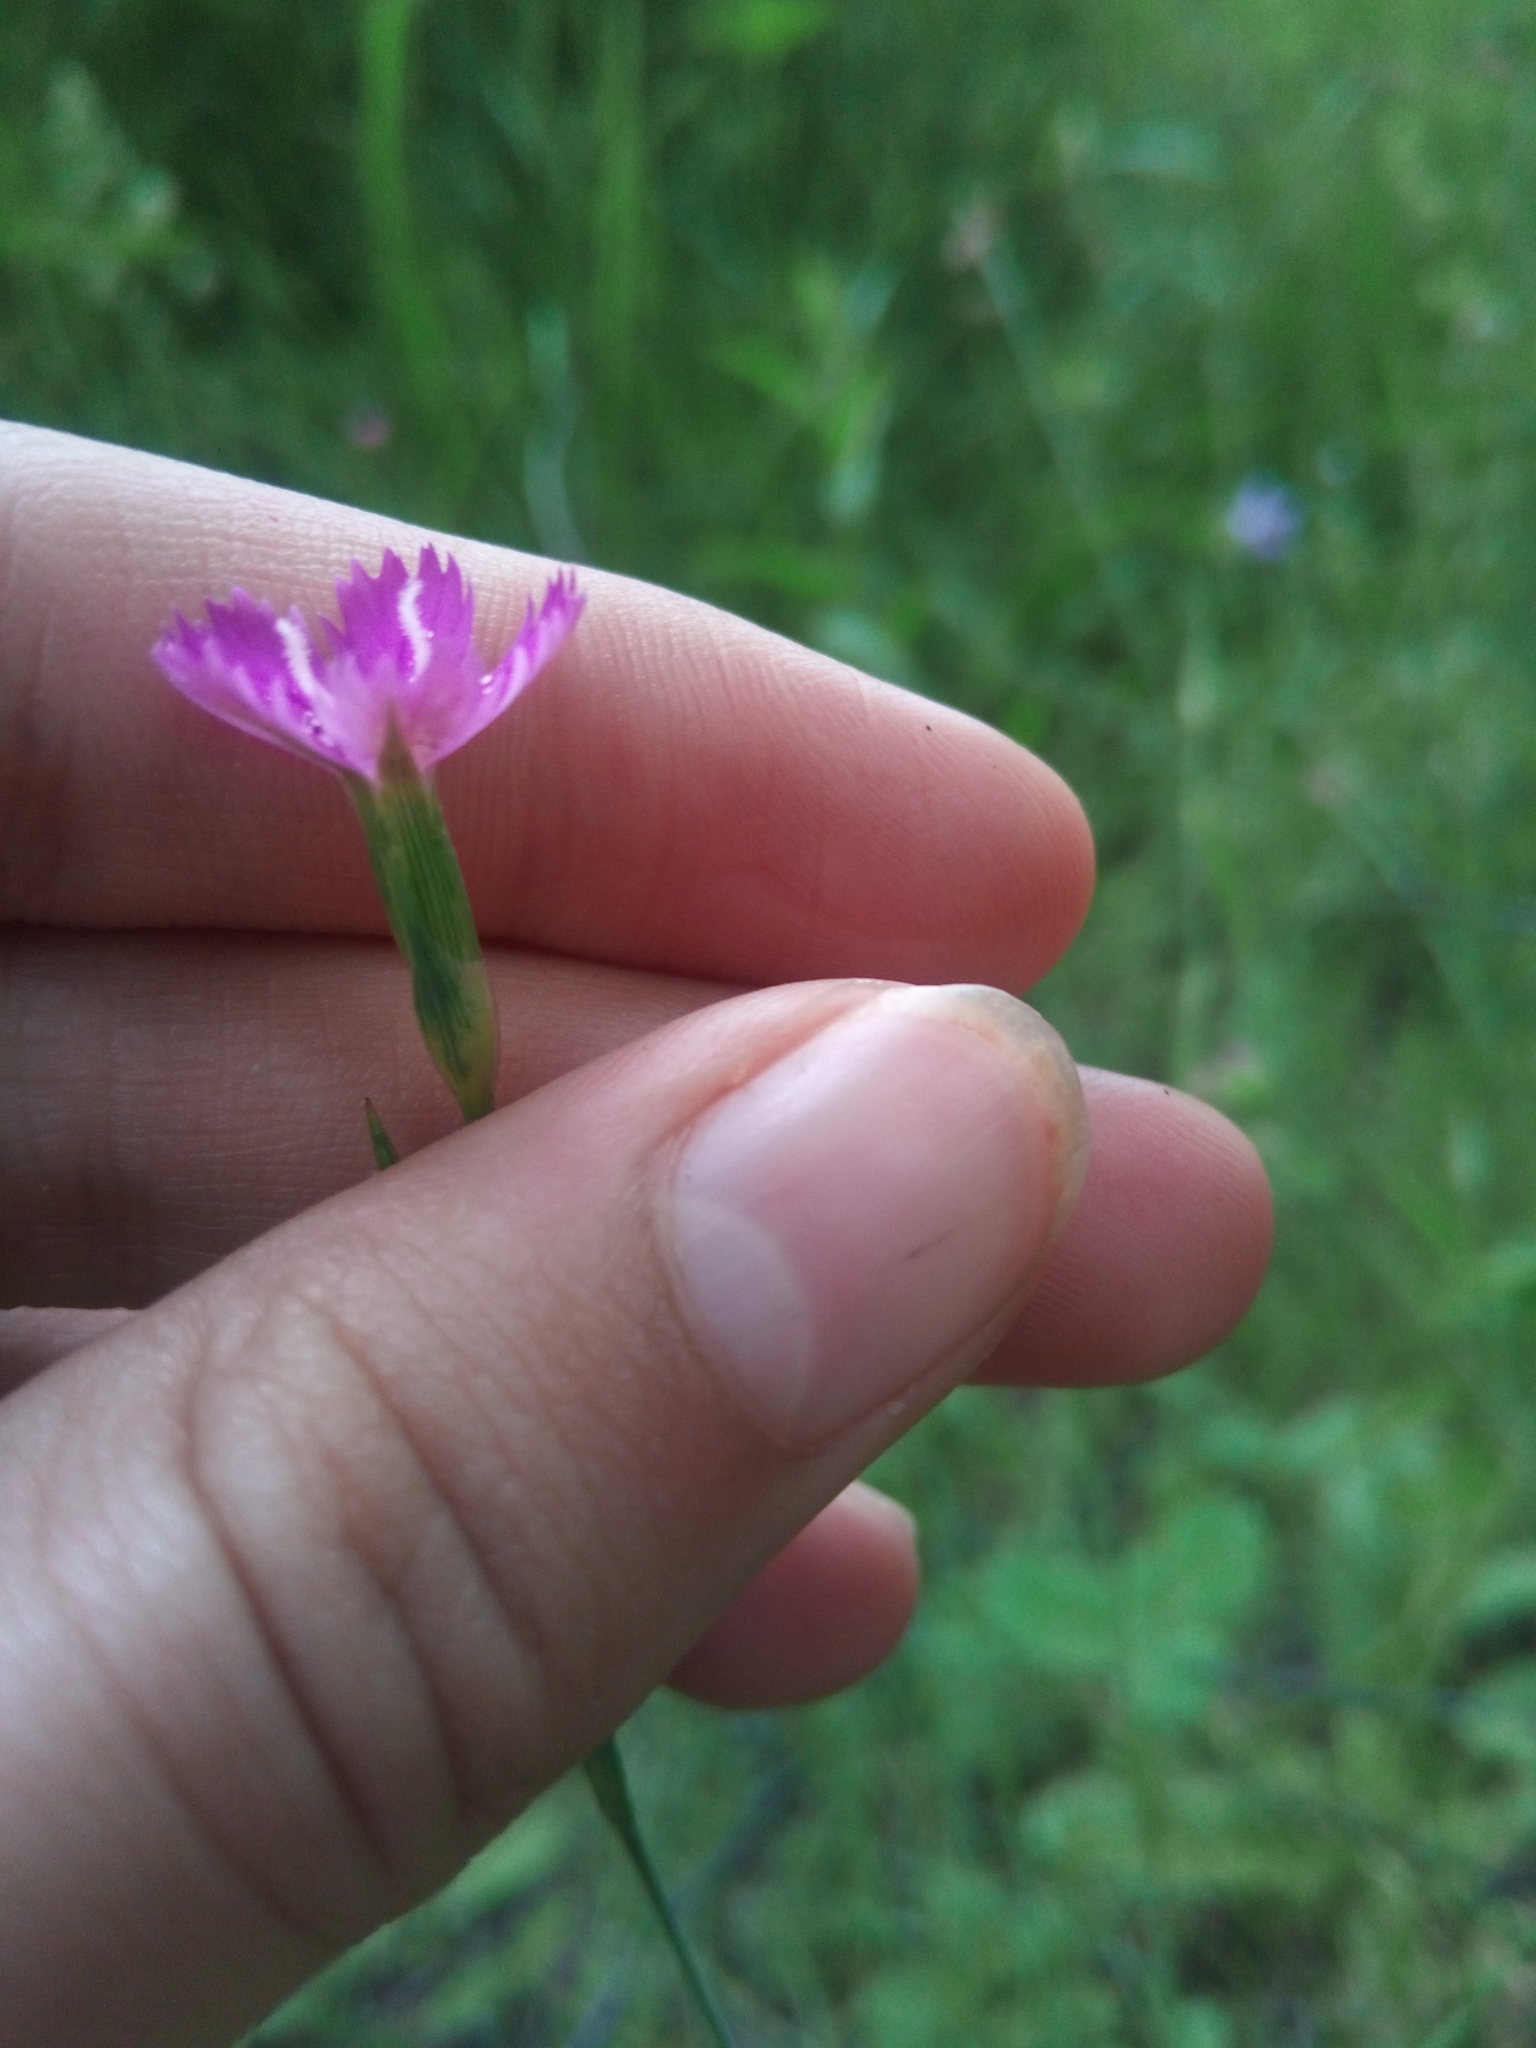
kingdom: Plantae
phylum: Tracheophyta
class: Magnoliopsida
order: Caryophyllales
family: Caryophyllaceae
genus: Dianthus
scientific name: Dianthus deltoides
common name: Maiden pink
